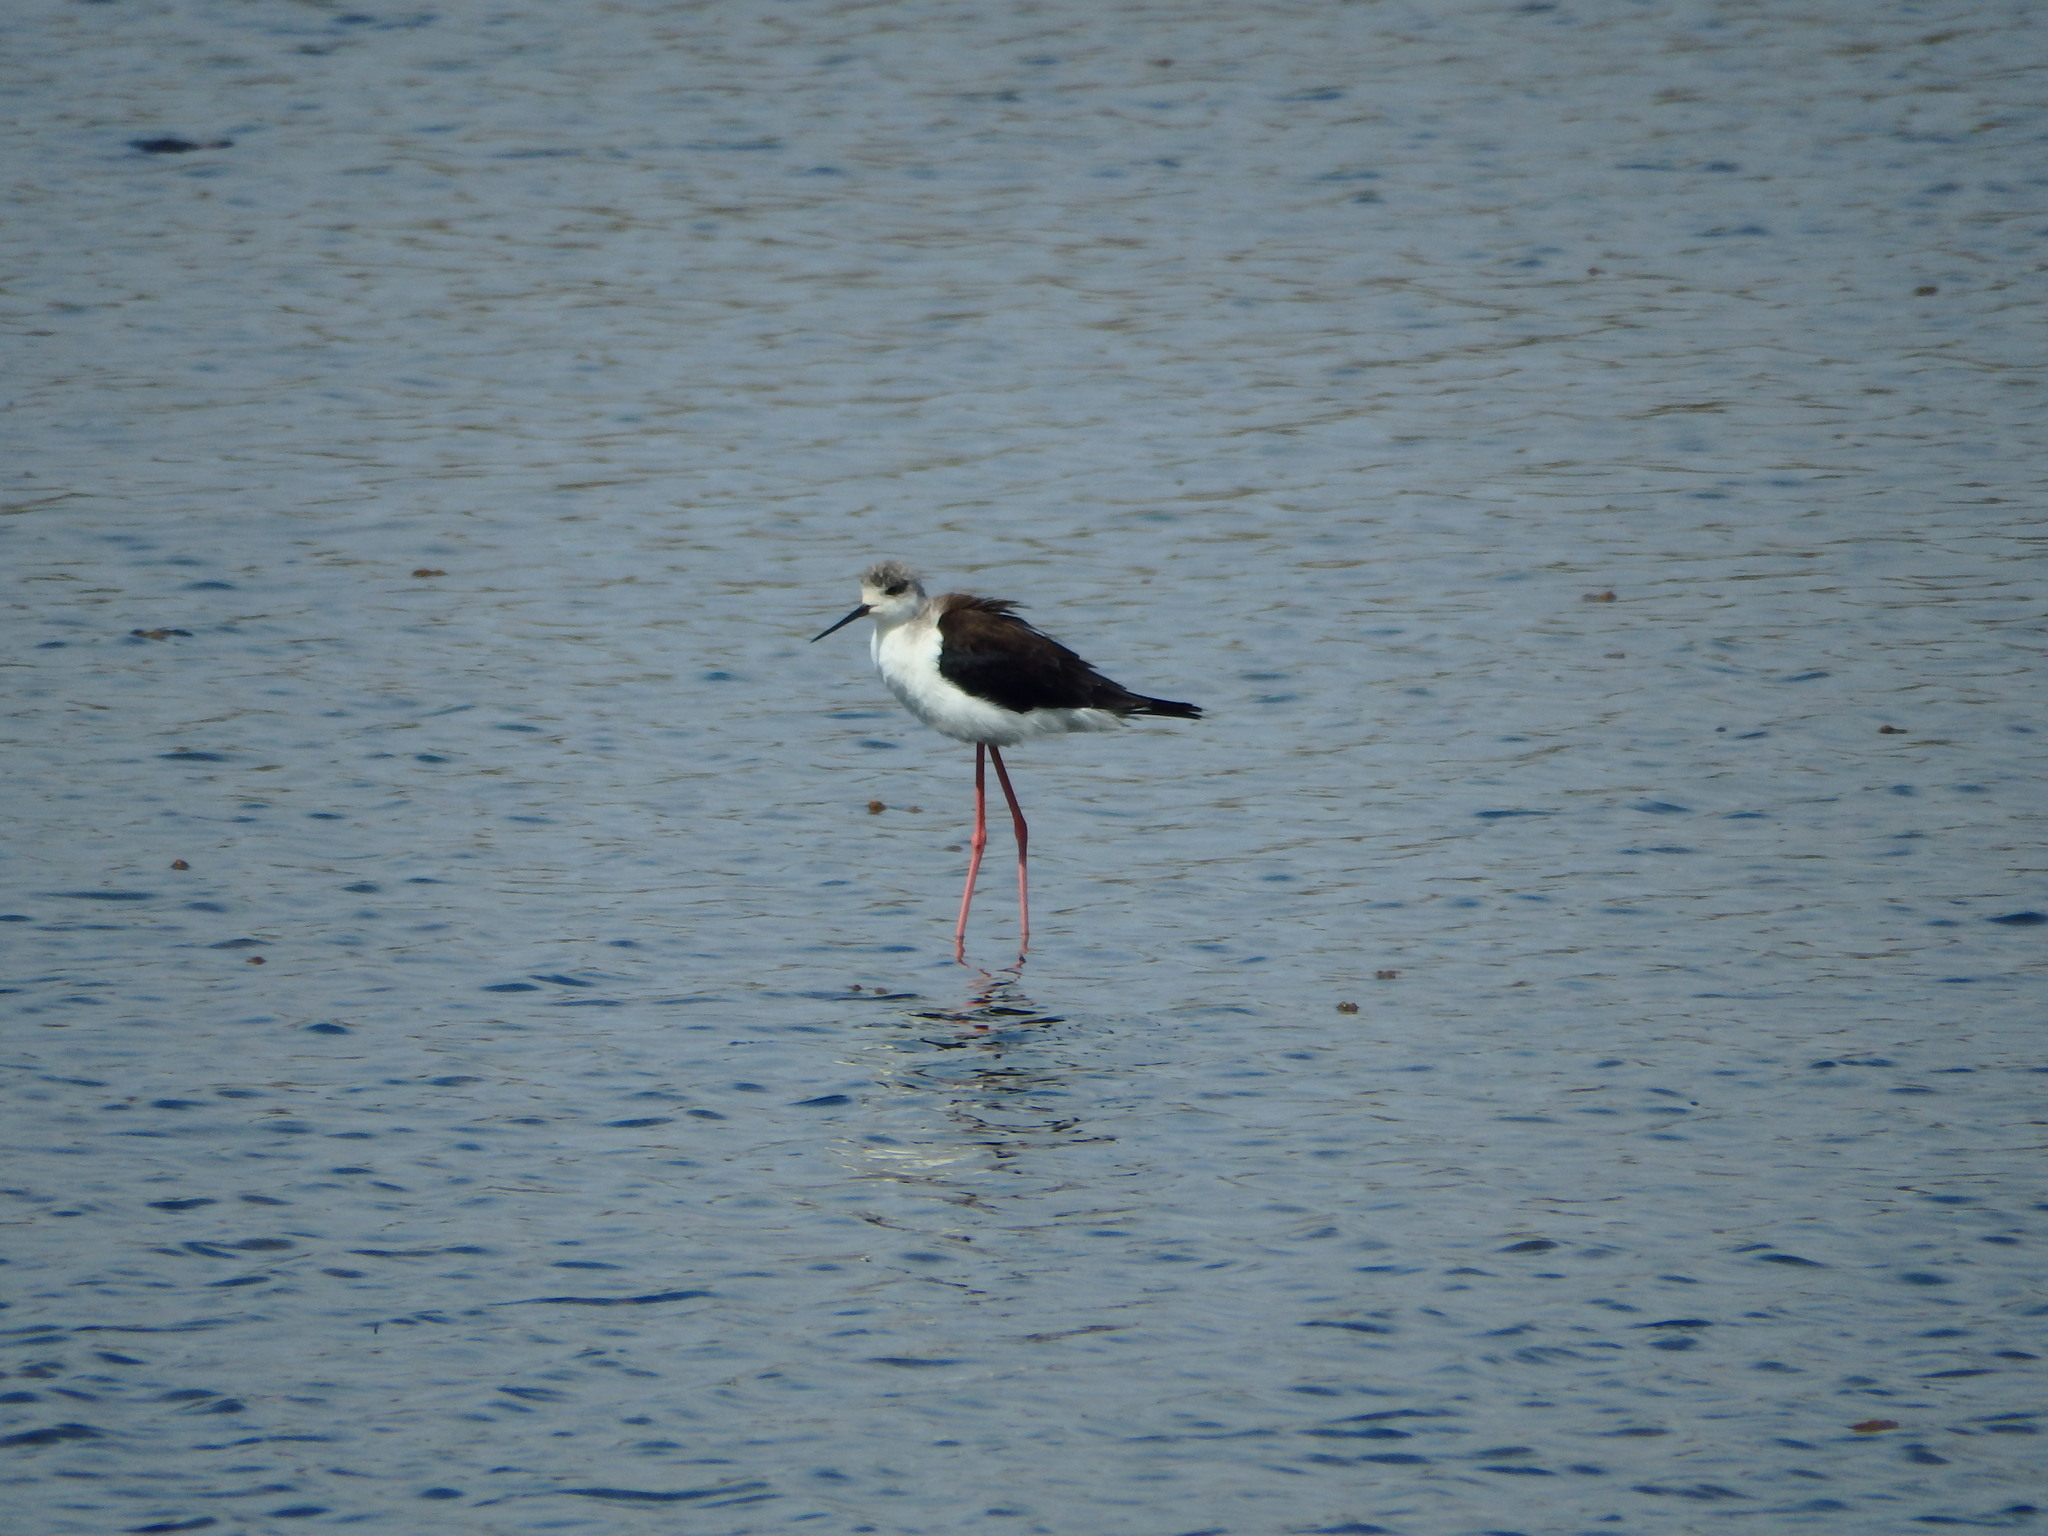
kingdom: Animalia
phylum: Chordata
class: Aves
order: Charadriiformes
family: Recurvirostridae
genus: Himantopus
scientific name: Himantopus himantopus
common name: Black-winged stilt
